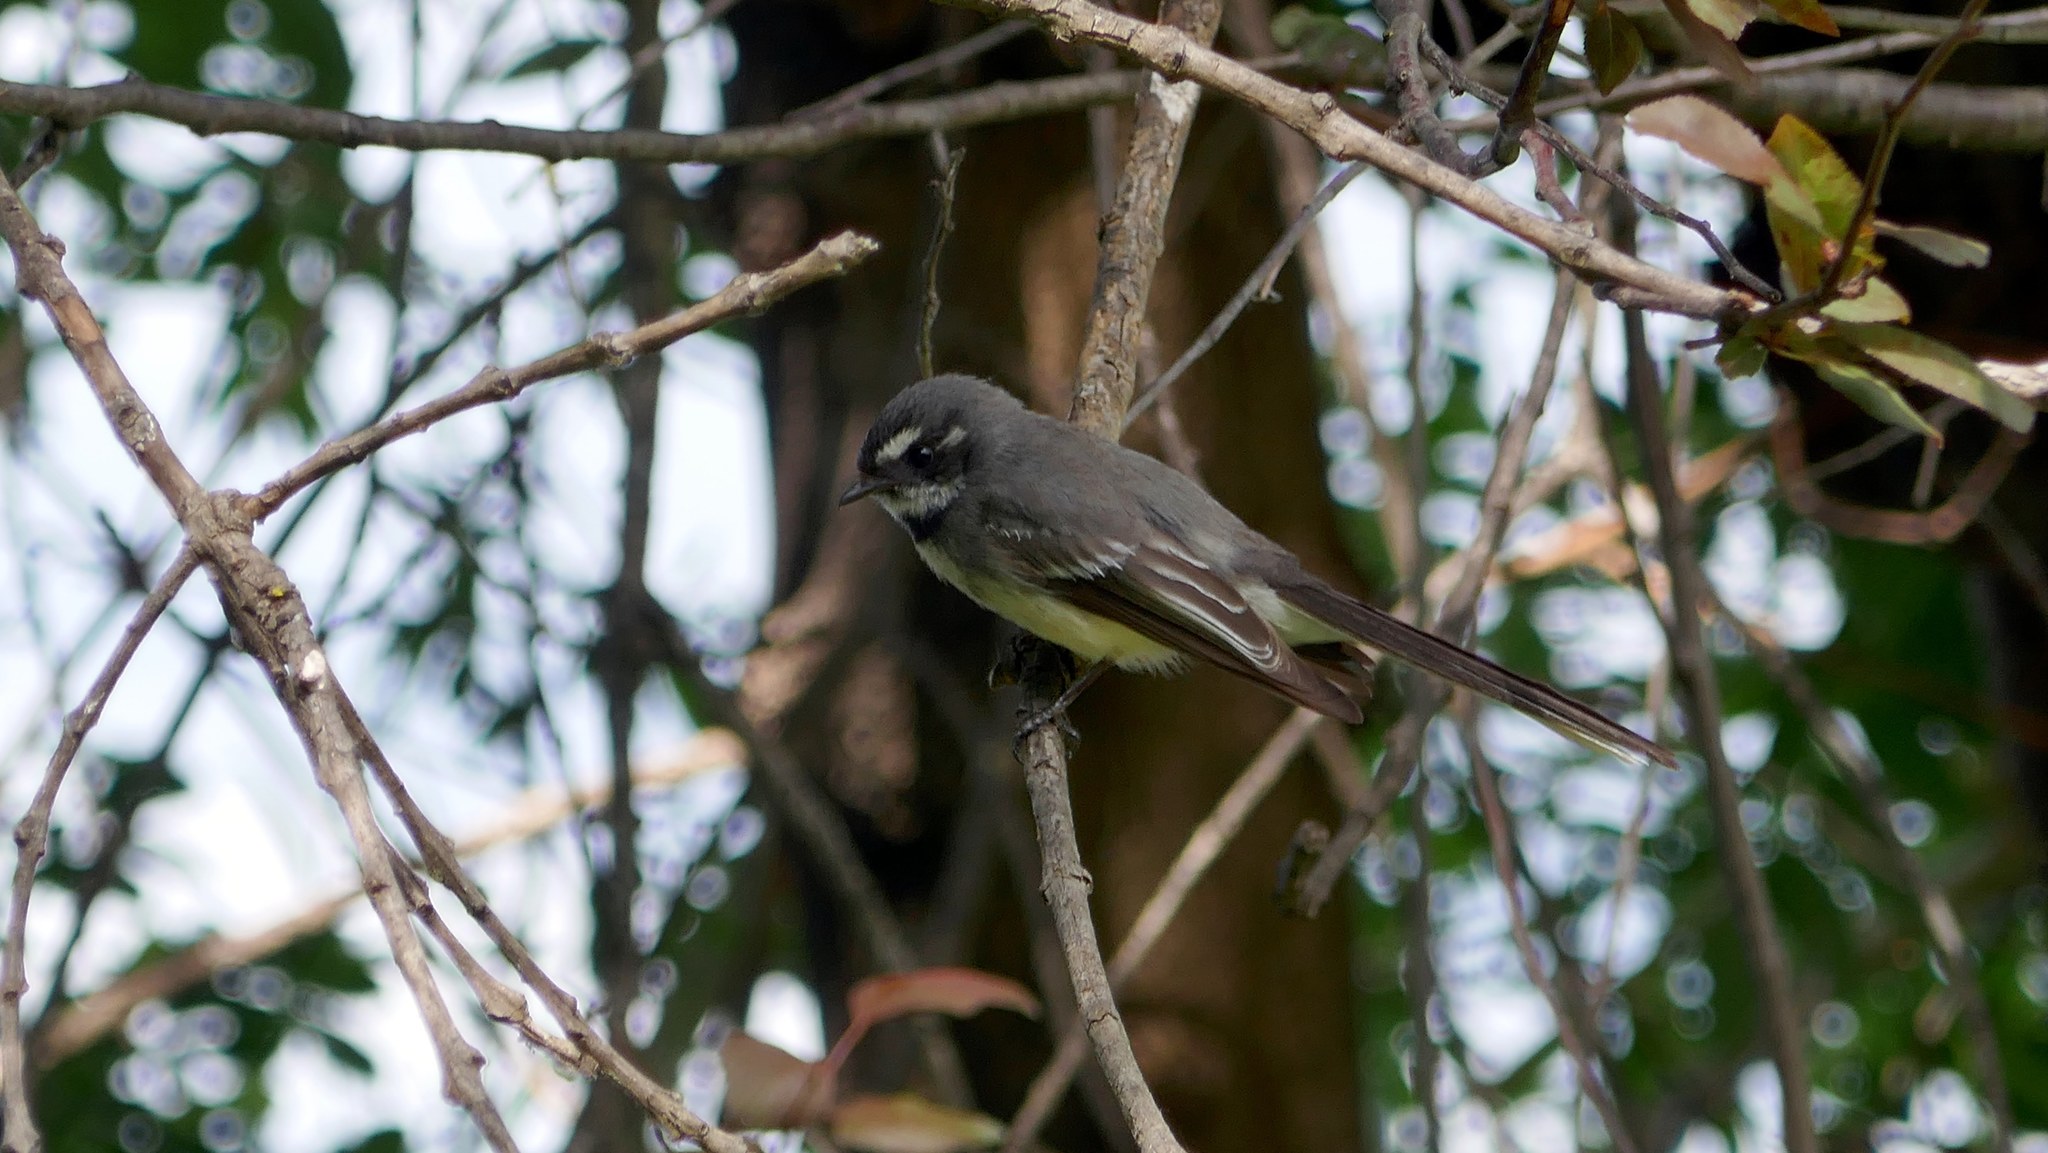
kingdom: Animalia
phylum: Chordata
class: Aves
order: Passeriformes
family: Rhipiduridae
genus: Rhipidura
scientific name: Rhipidura albiscapa
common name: Grey fantail
